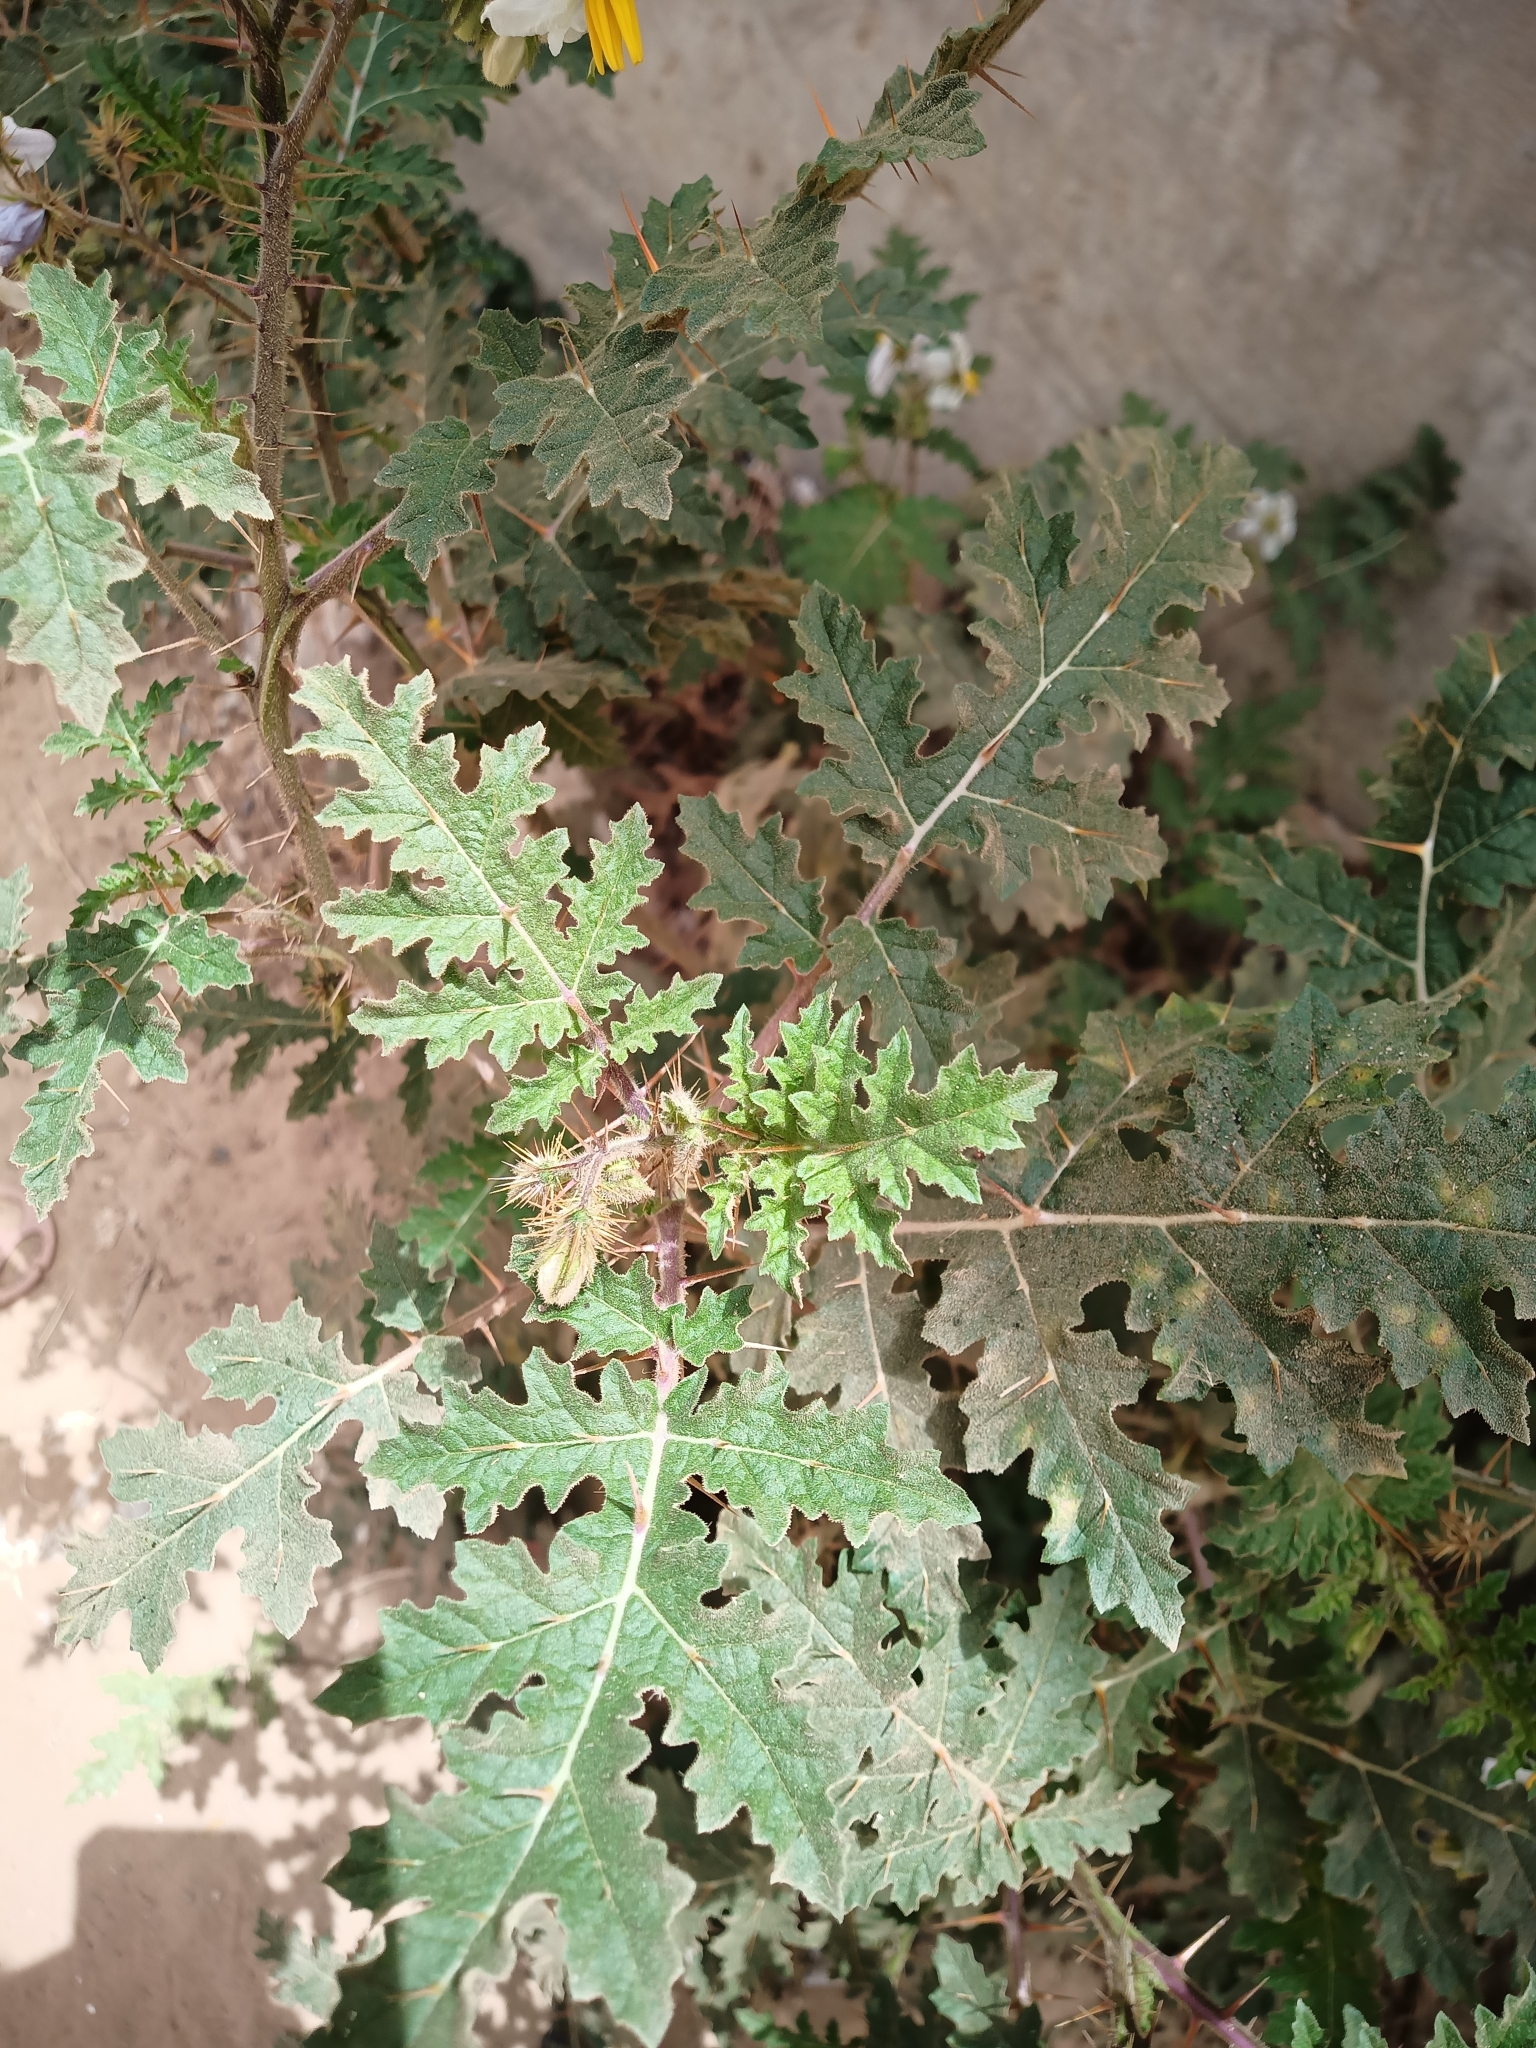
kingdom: Plantae
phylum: Tracheophyta
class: Magnoliopsida
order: Solanales
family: Solanaceae
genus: Solanum
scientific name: Solanum sisymbriifolium
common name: Red buffalo-bur
